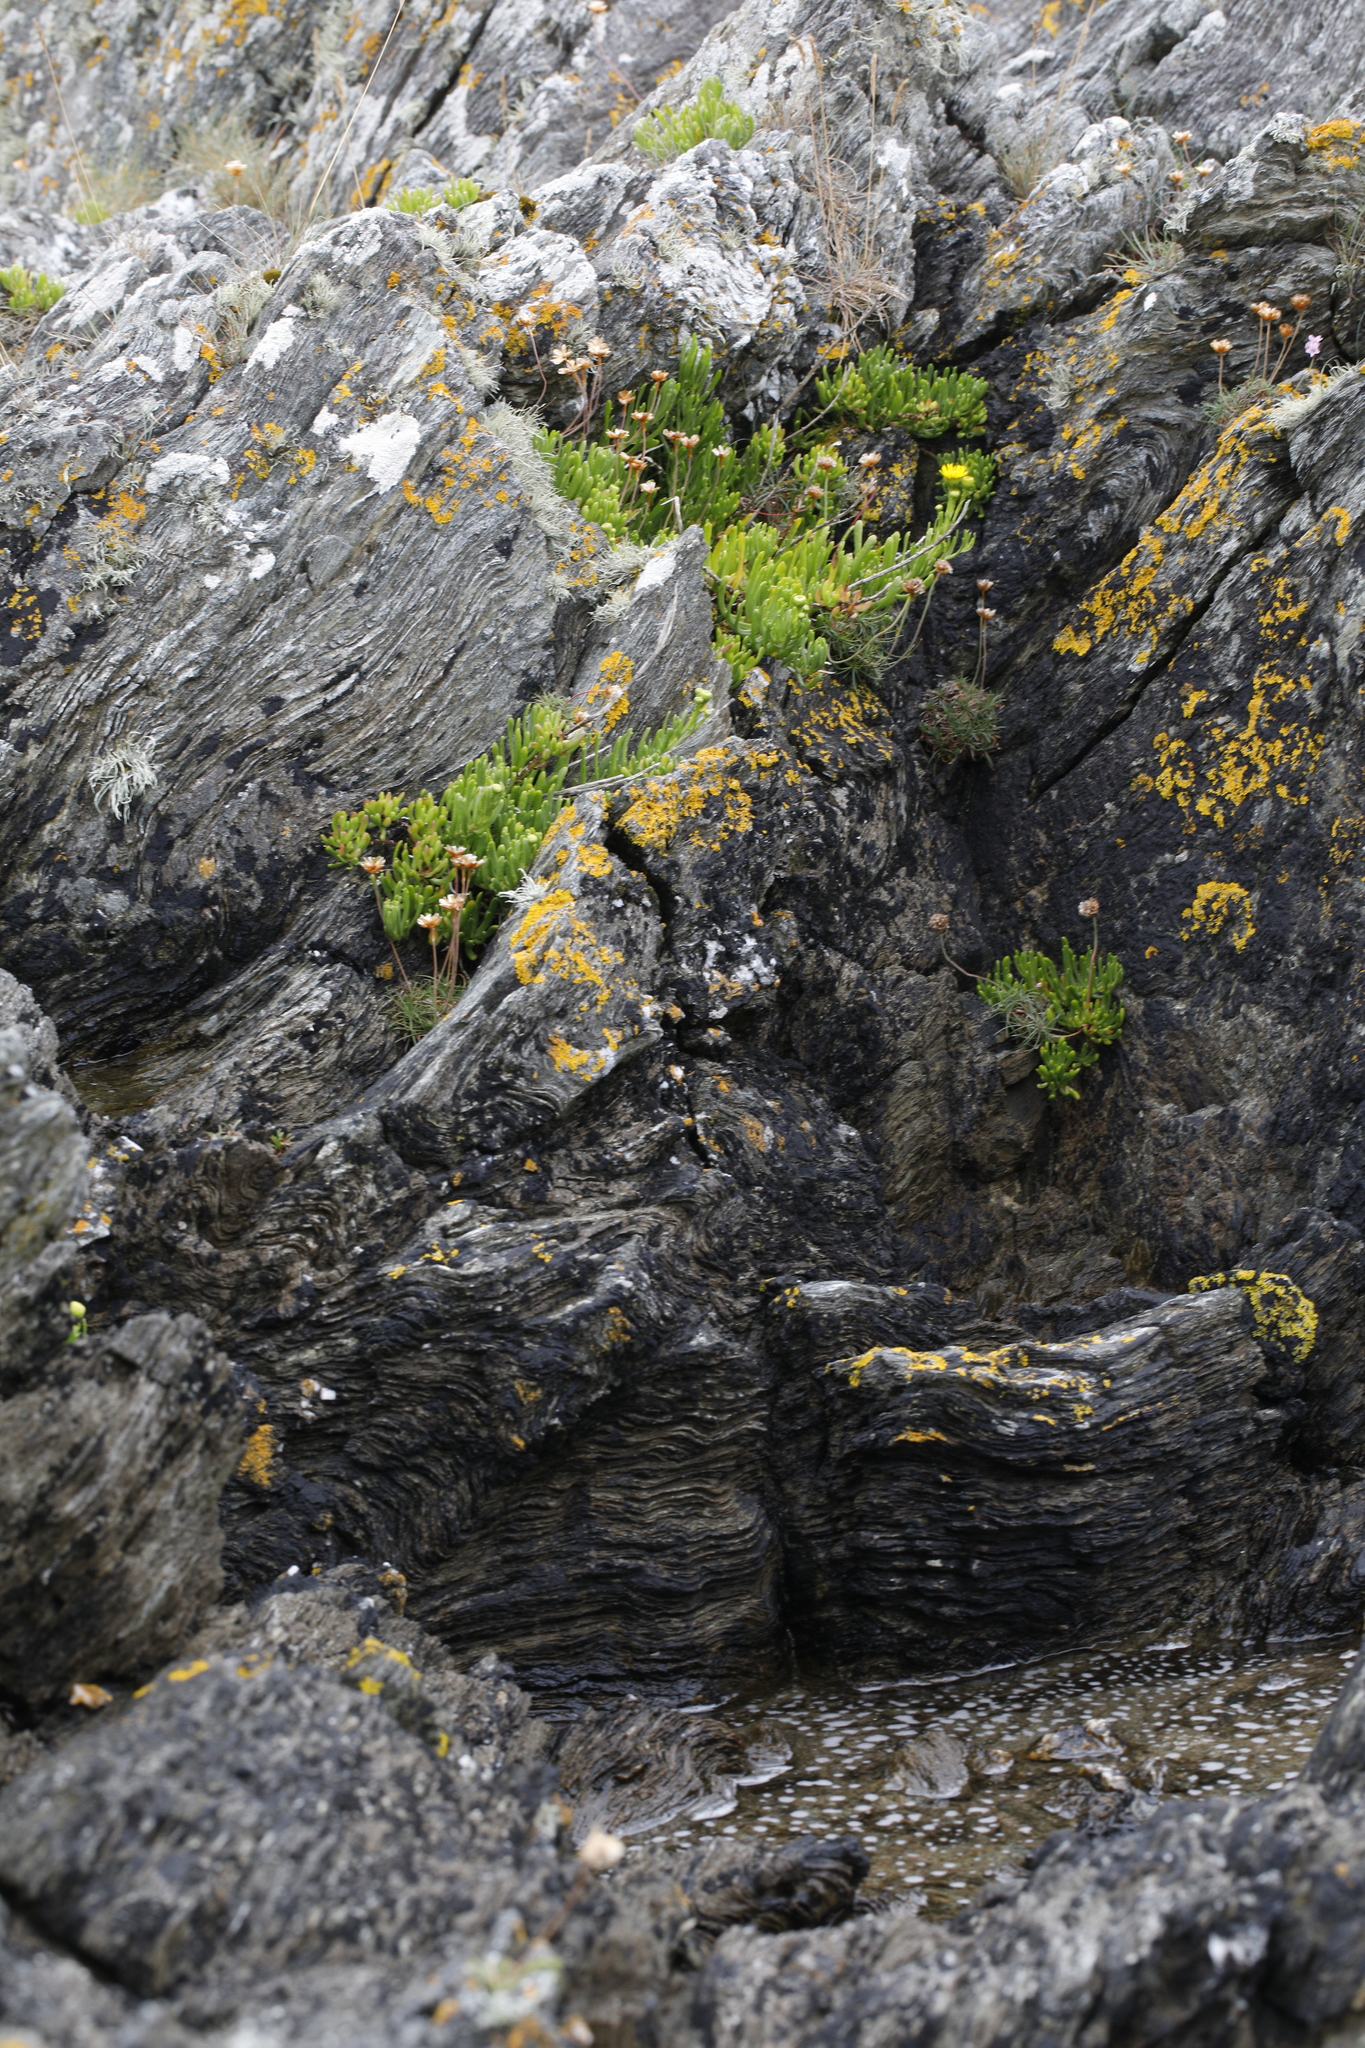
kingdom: Plantae
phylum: Tracheophyta
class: Magnoliopsida
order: Asterales
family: Asteraceae
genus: Limbarda
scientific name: Limbarda crithmoides
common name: Golden samphire
